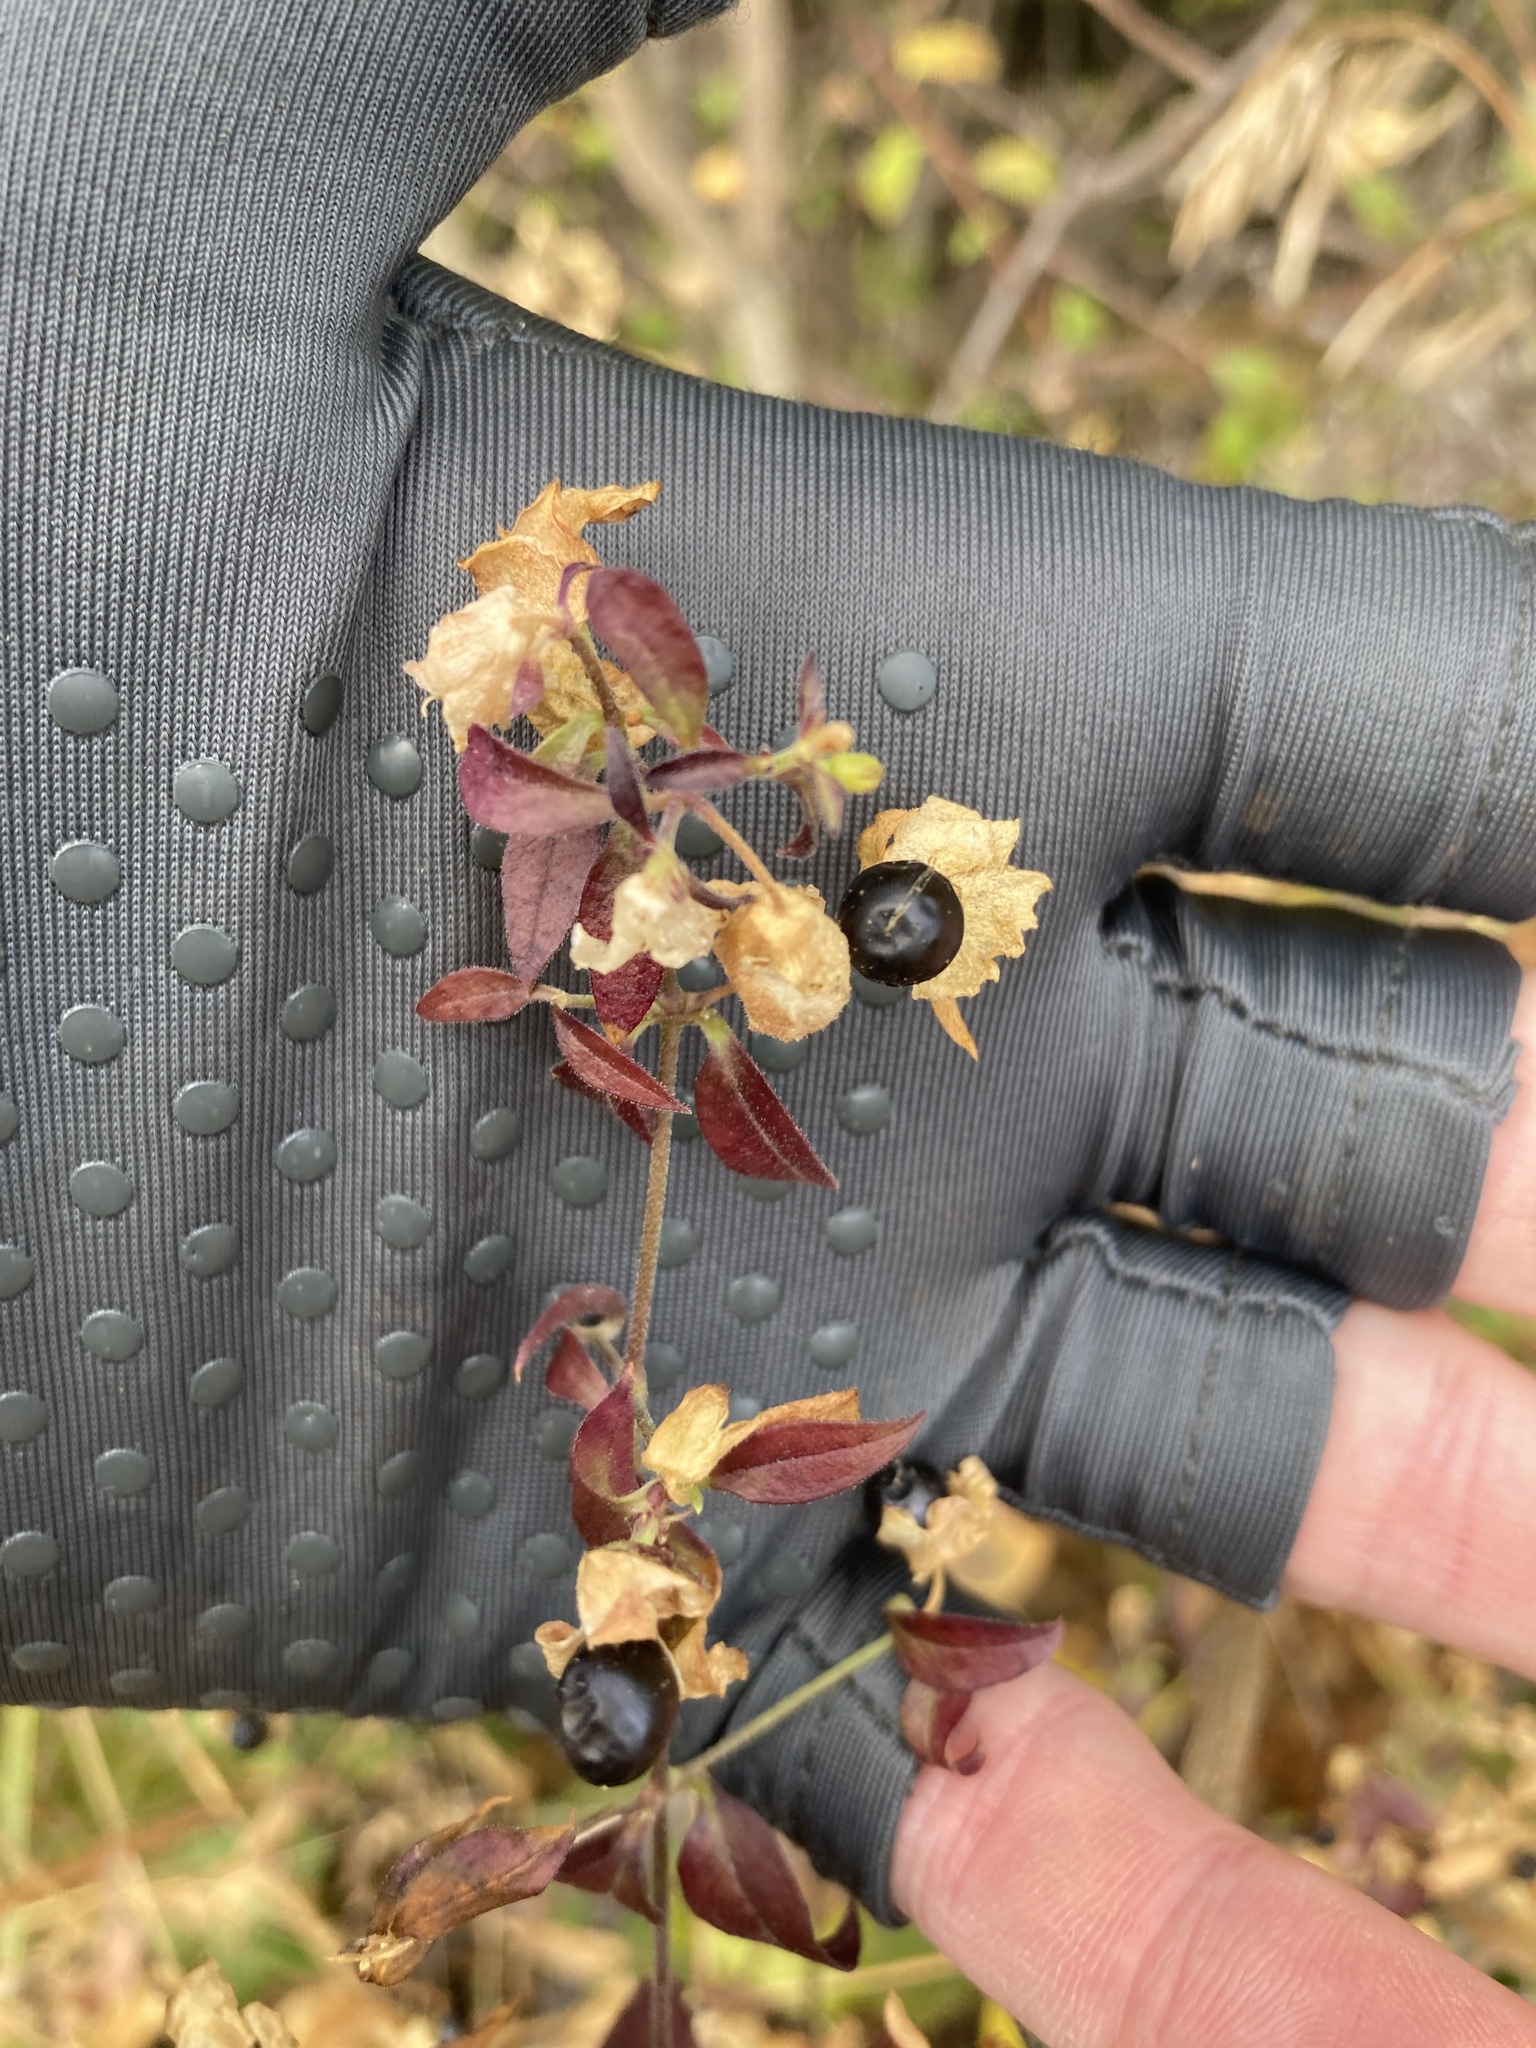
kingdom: Plantae
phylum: Tracheophyta
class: Magnoliopsida
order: Caryophyllales
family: Caryophyllaceae
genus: Silene
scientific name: Silene baccifera
